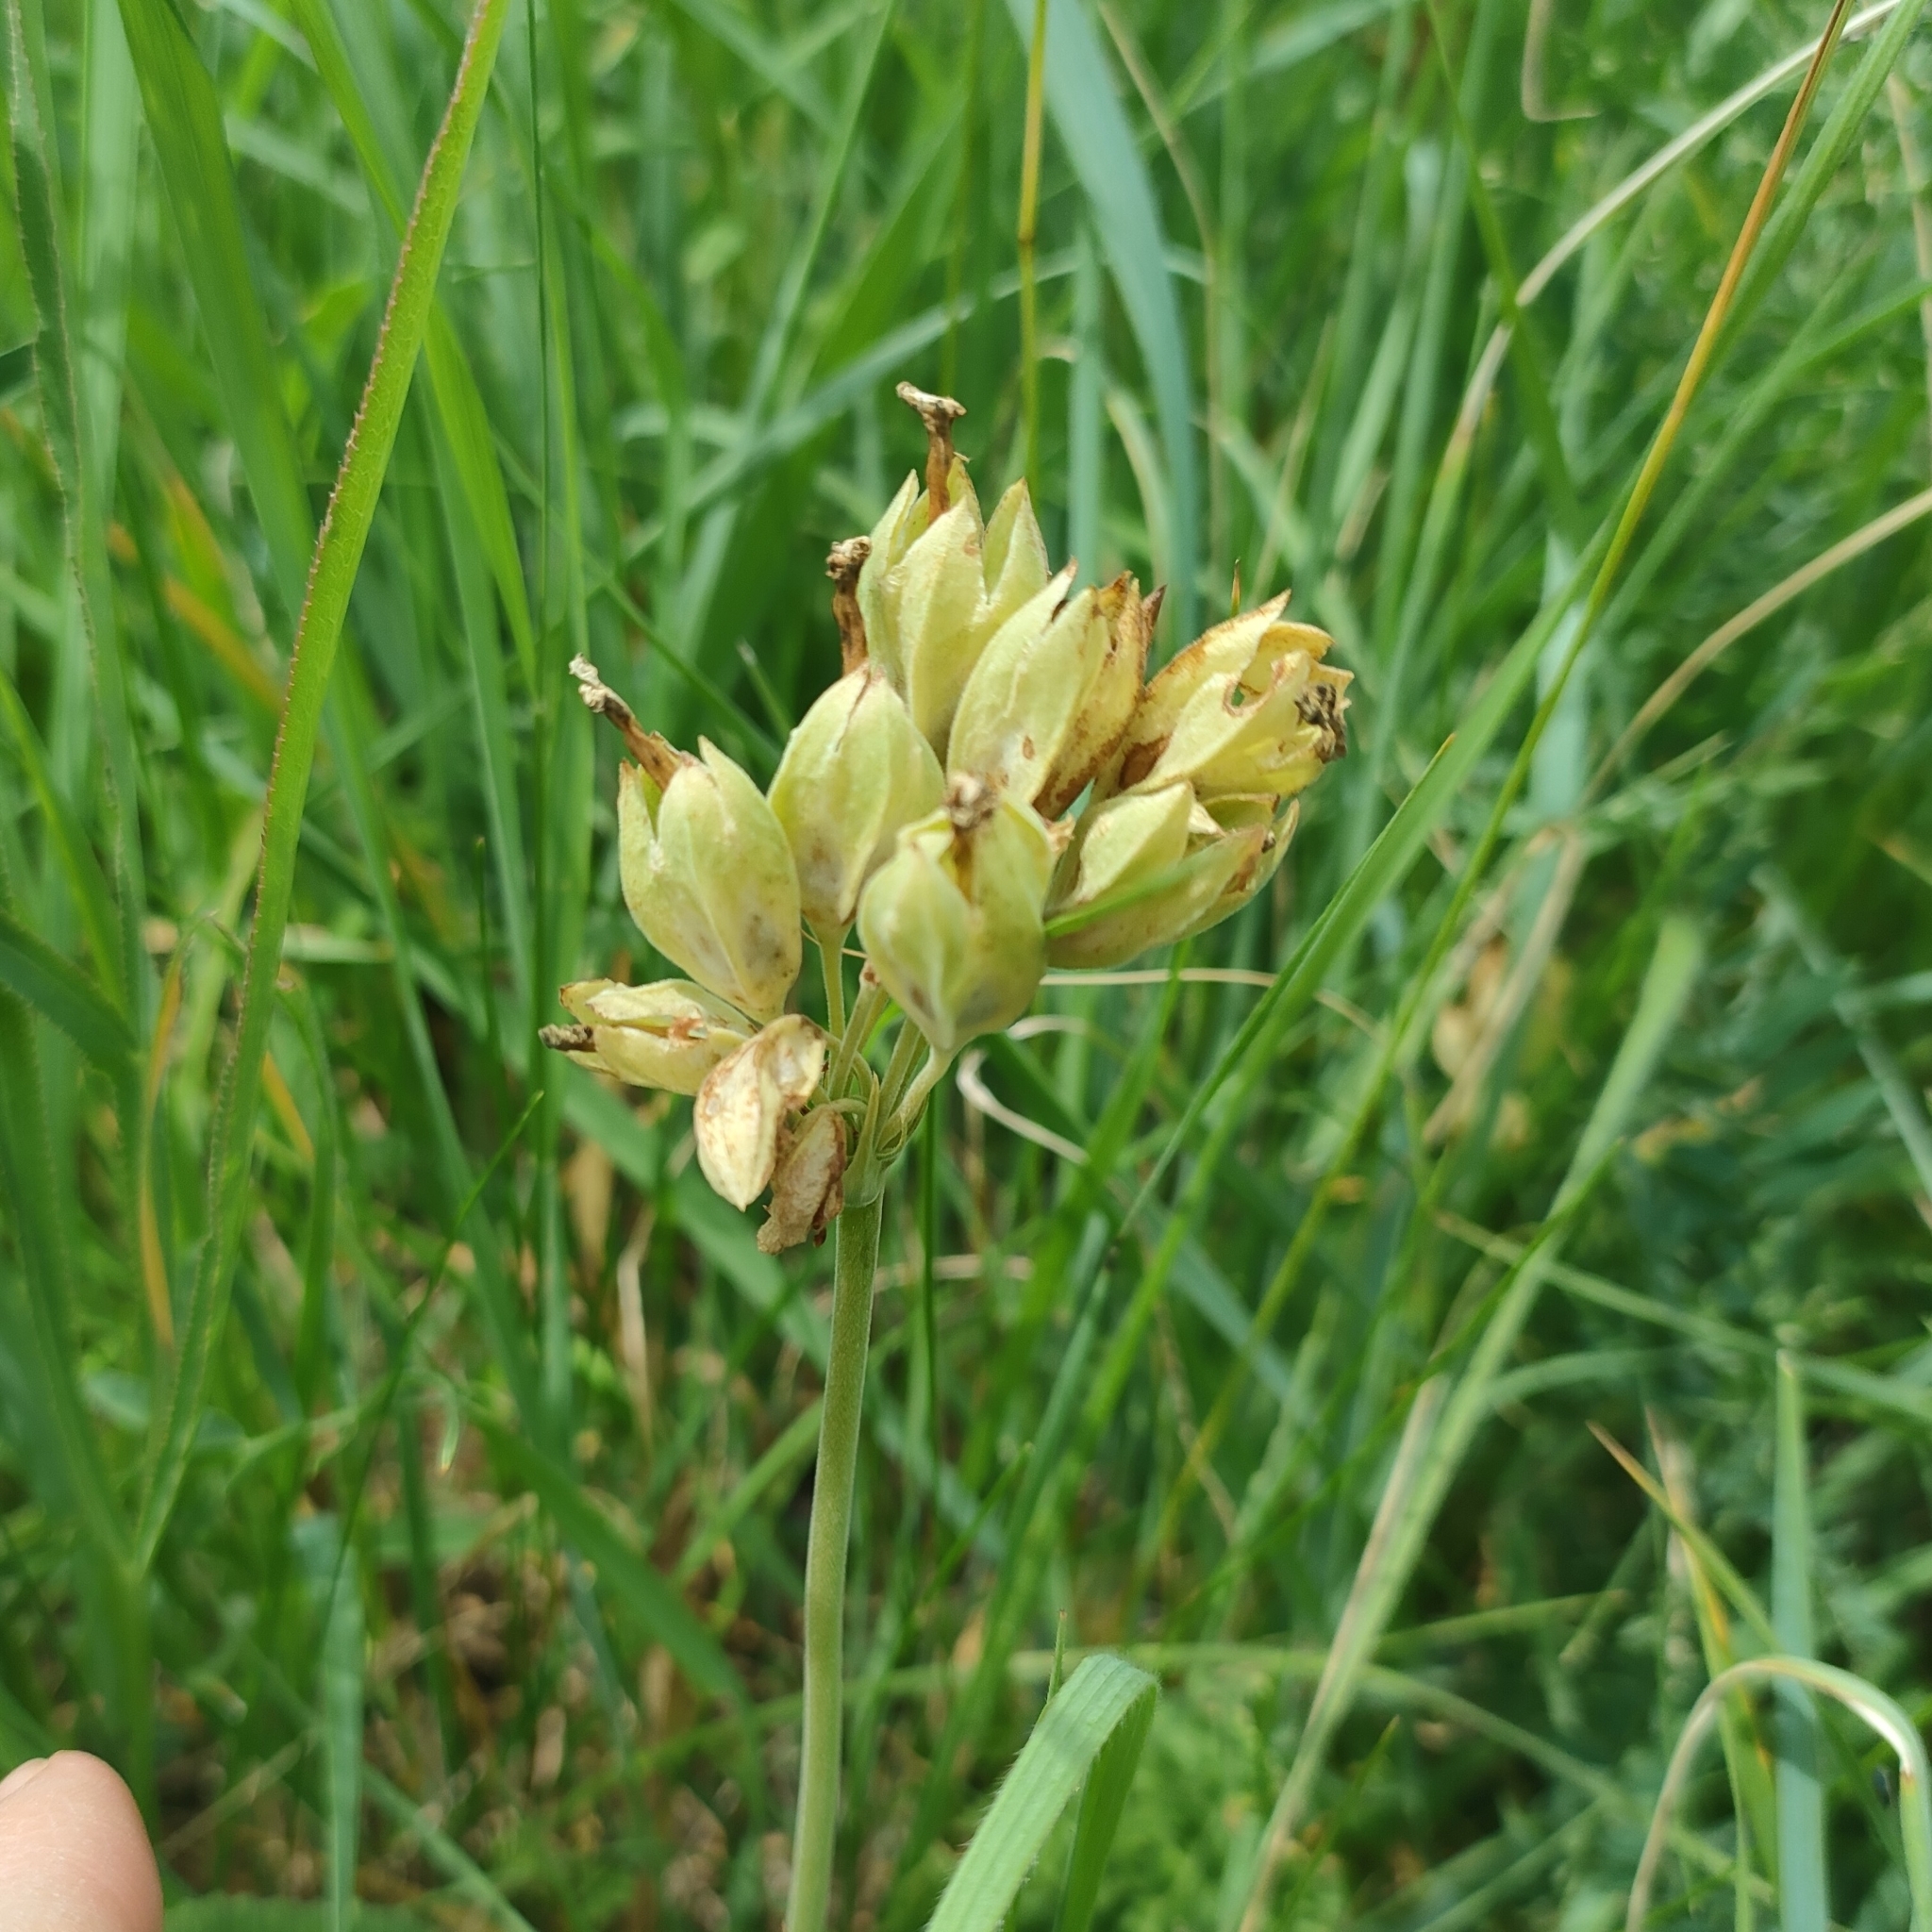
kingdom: Plantae
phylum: Tracheophyta
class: Magnoliopsida
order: Ericales
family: Primulaceae
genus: Primula
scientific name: Primula veris
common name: Cowslip
